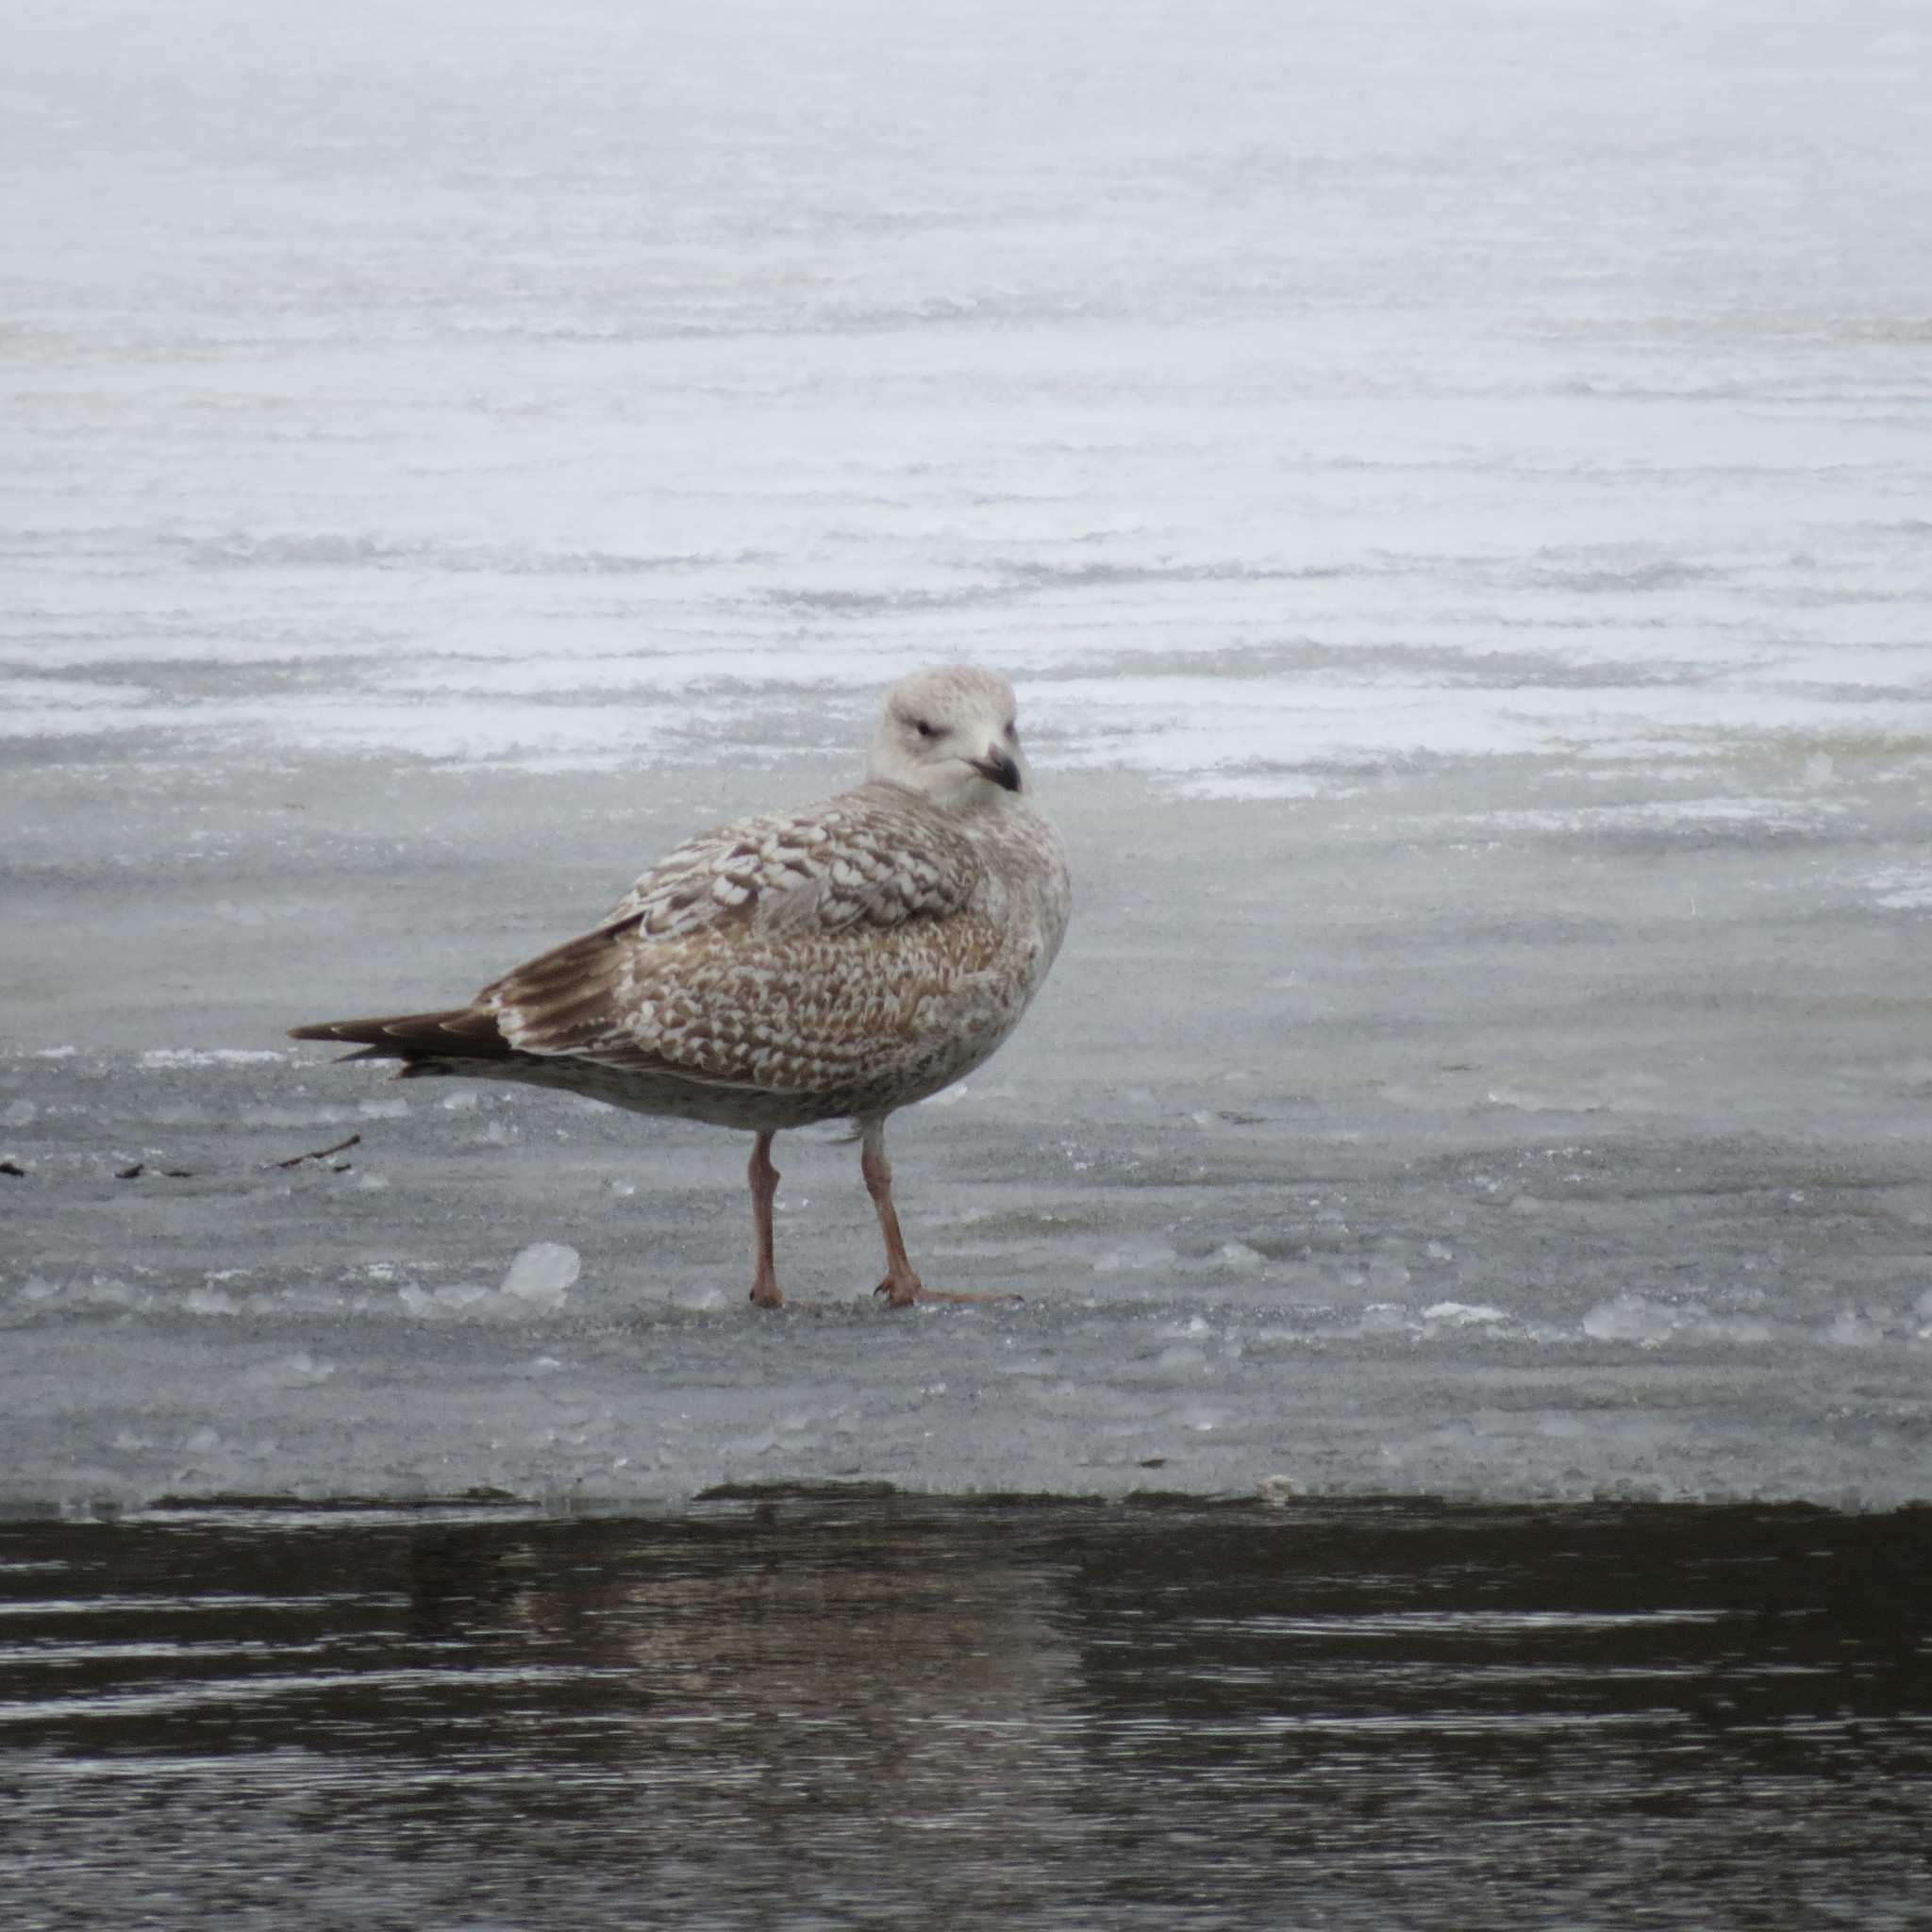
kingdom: Animalia
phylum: Chordata
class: Aves
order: Charadriiformes
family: Laridae
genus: Larus
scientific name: Larus argentatus
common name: Herring gull
